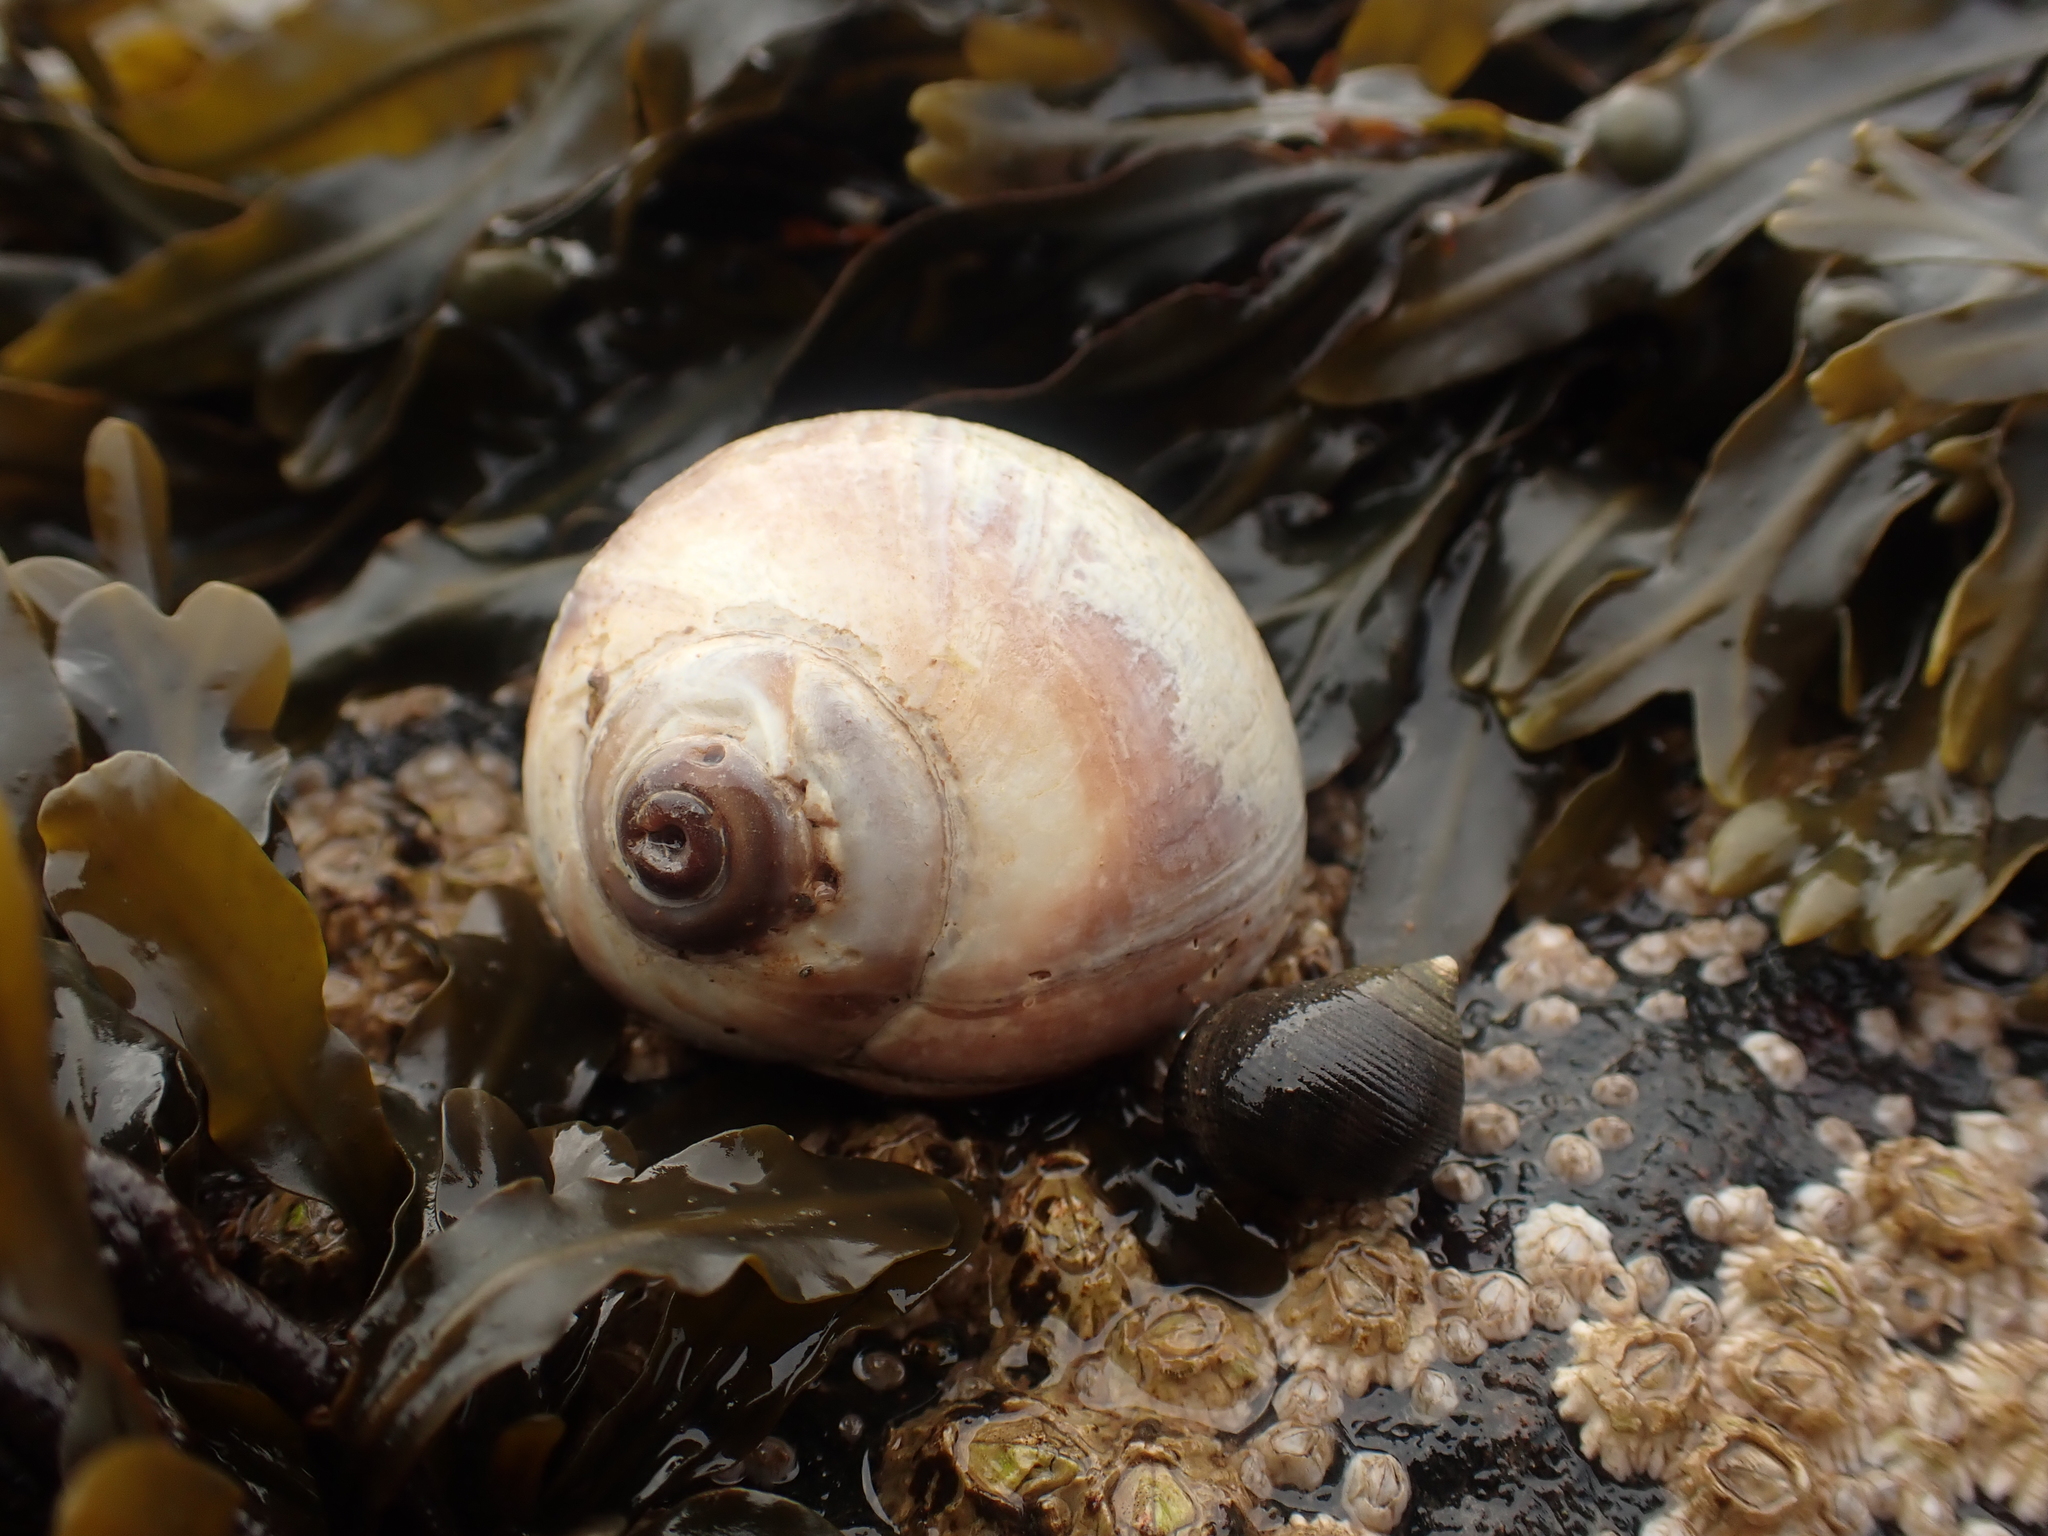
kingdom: Animalia
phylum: Mollusca
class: Gastropoda
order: Littorinimorpha
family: Naticidae
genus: Euspira
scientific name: Euspira heros
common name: Common northern moonsnail
